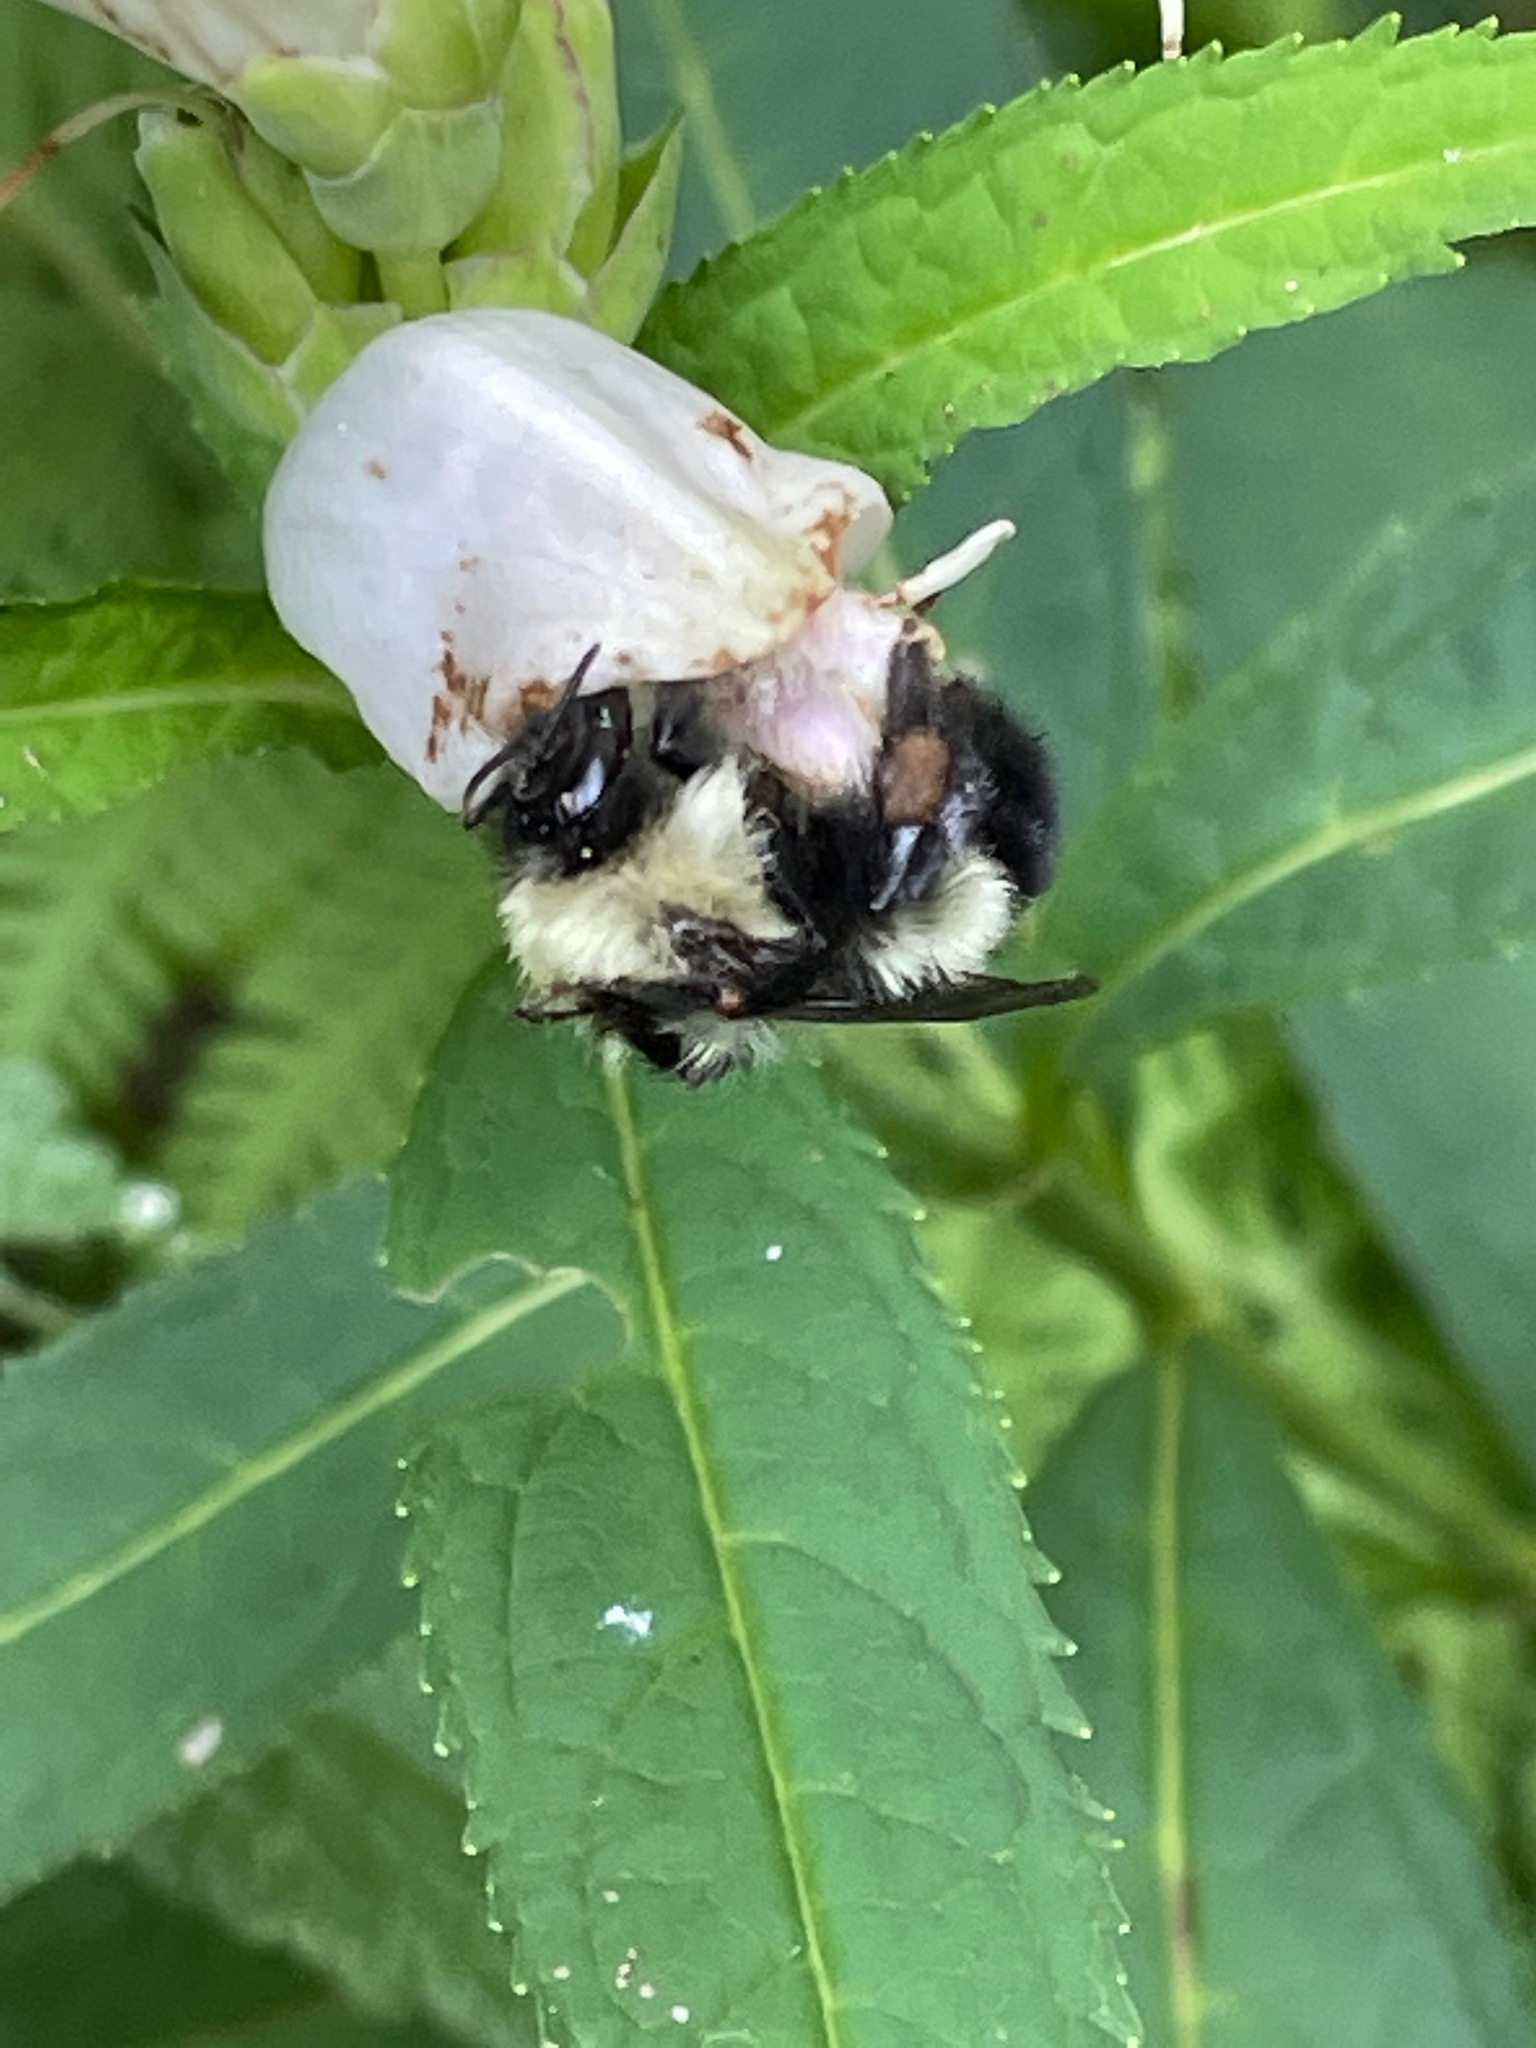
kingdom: Animalia
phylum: Arthropoda
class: Insecta
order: Hymenoptera
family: Apidae
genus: Bombus
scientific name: Bombus vagans
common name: Half-black bumble bee
